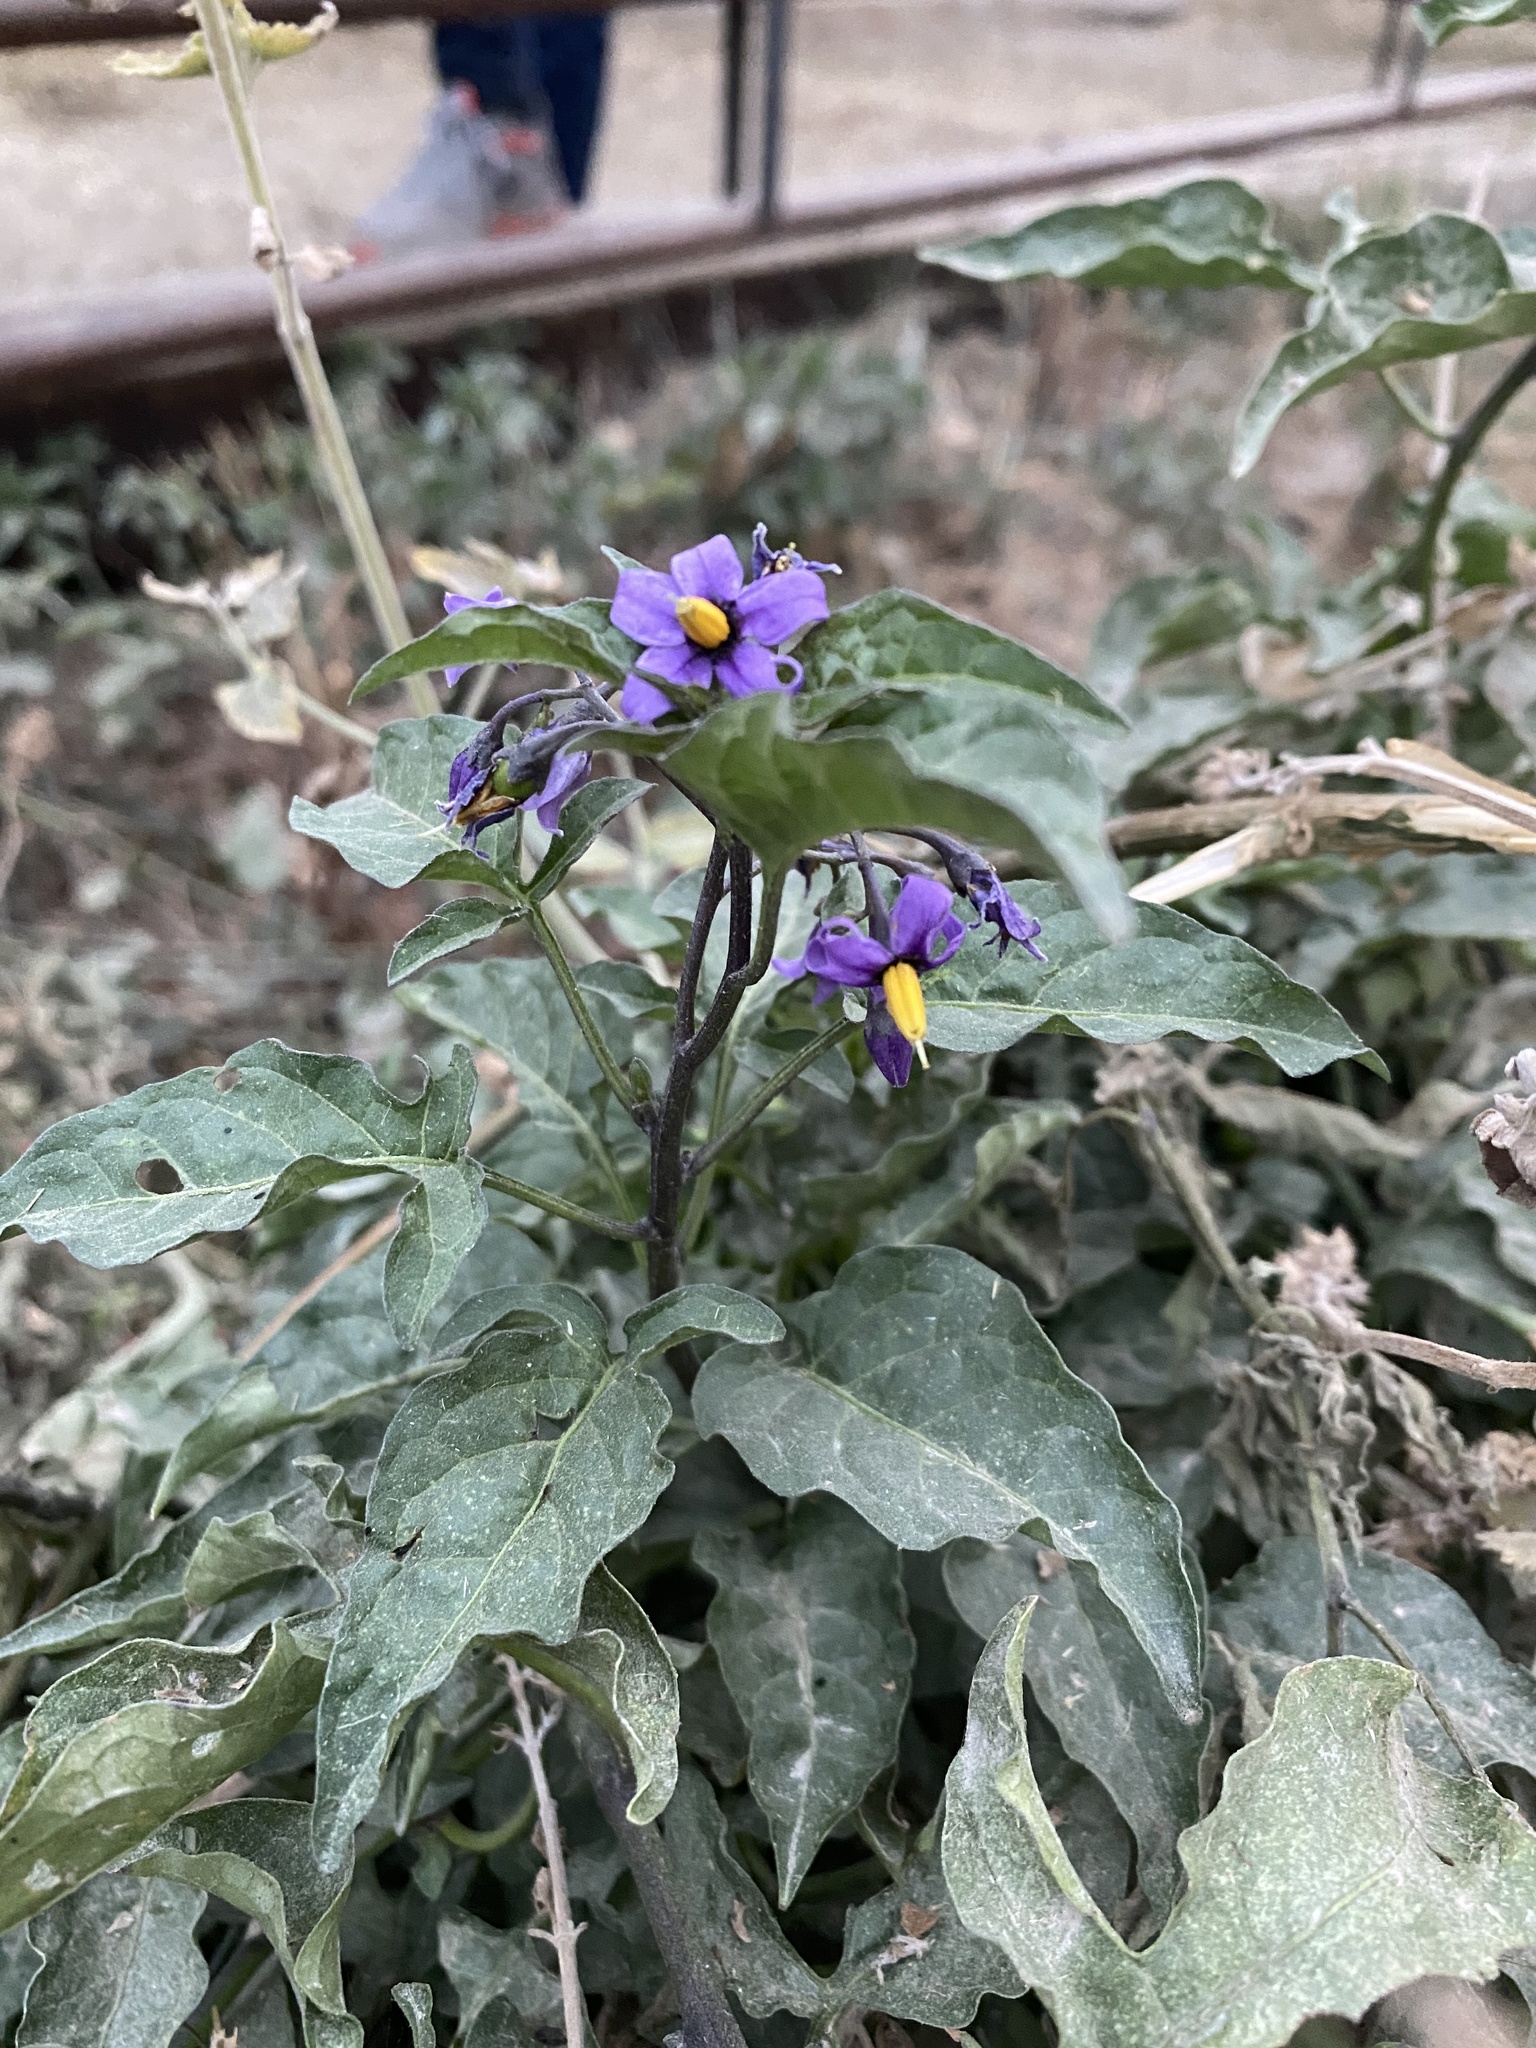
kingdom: Plantae
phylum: Tracheophyta
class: Magnoliopsida
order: Solanales
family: Solanaceae
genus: Solanum
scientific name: Solanum dulcamara
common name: Climbing nightshade
